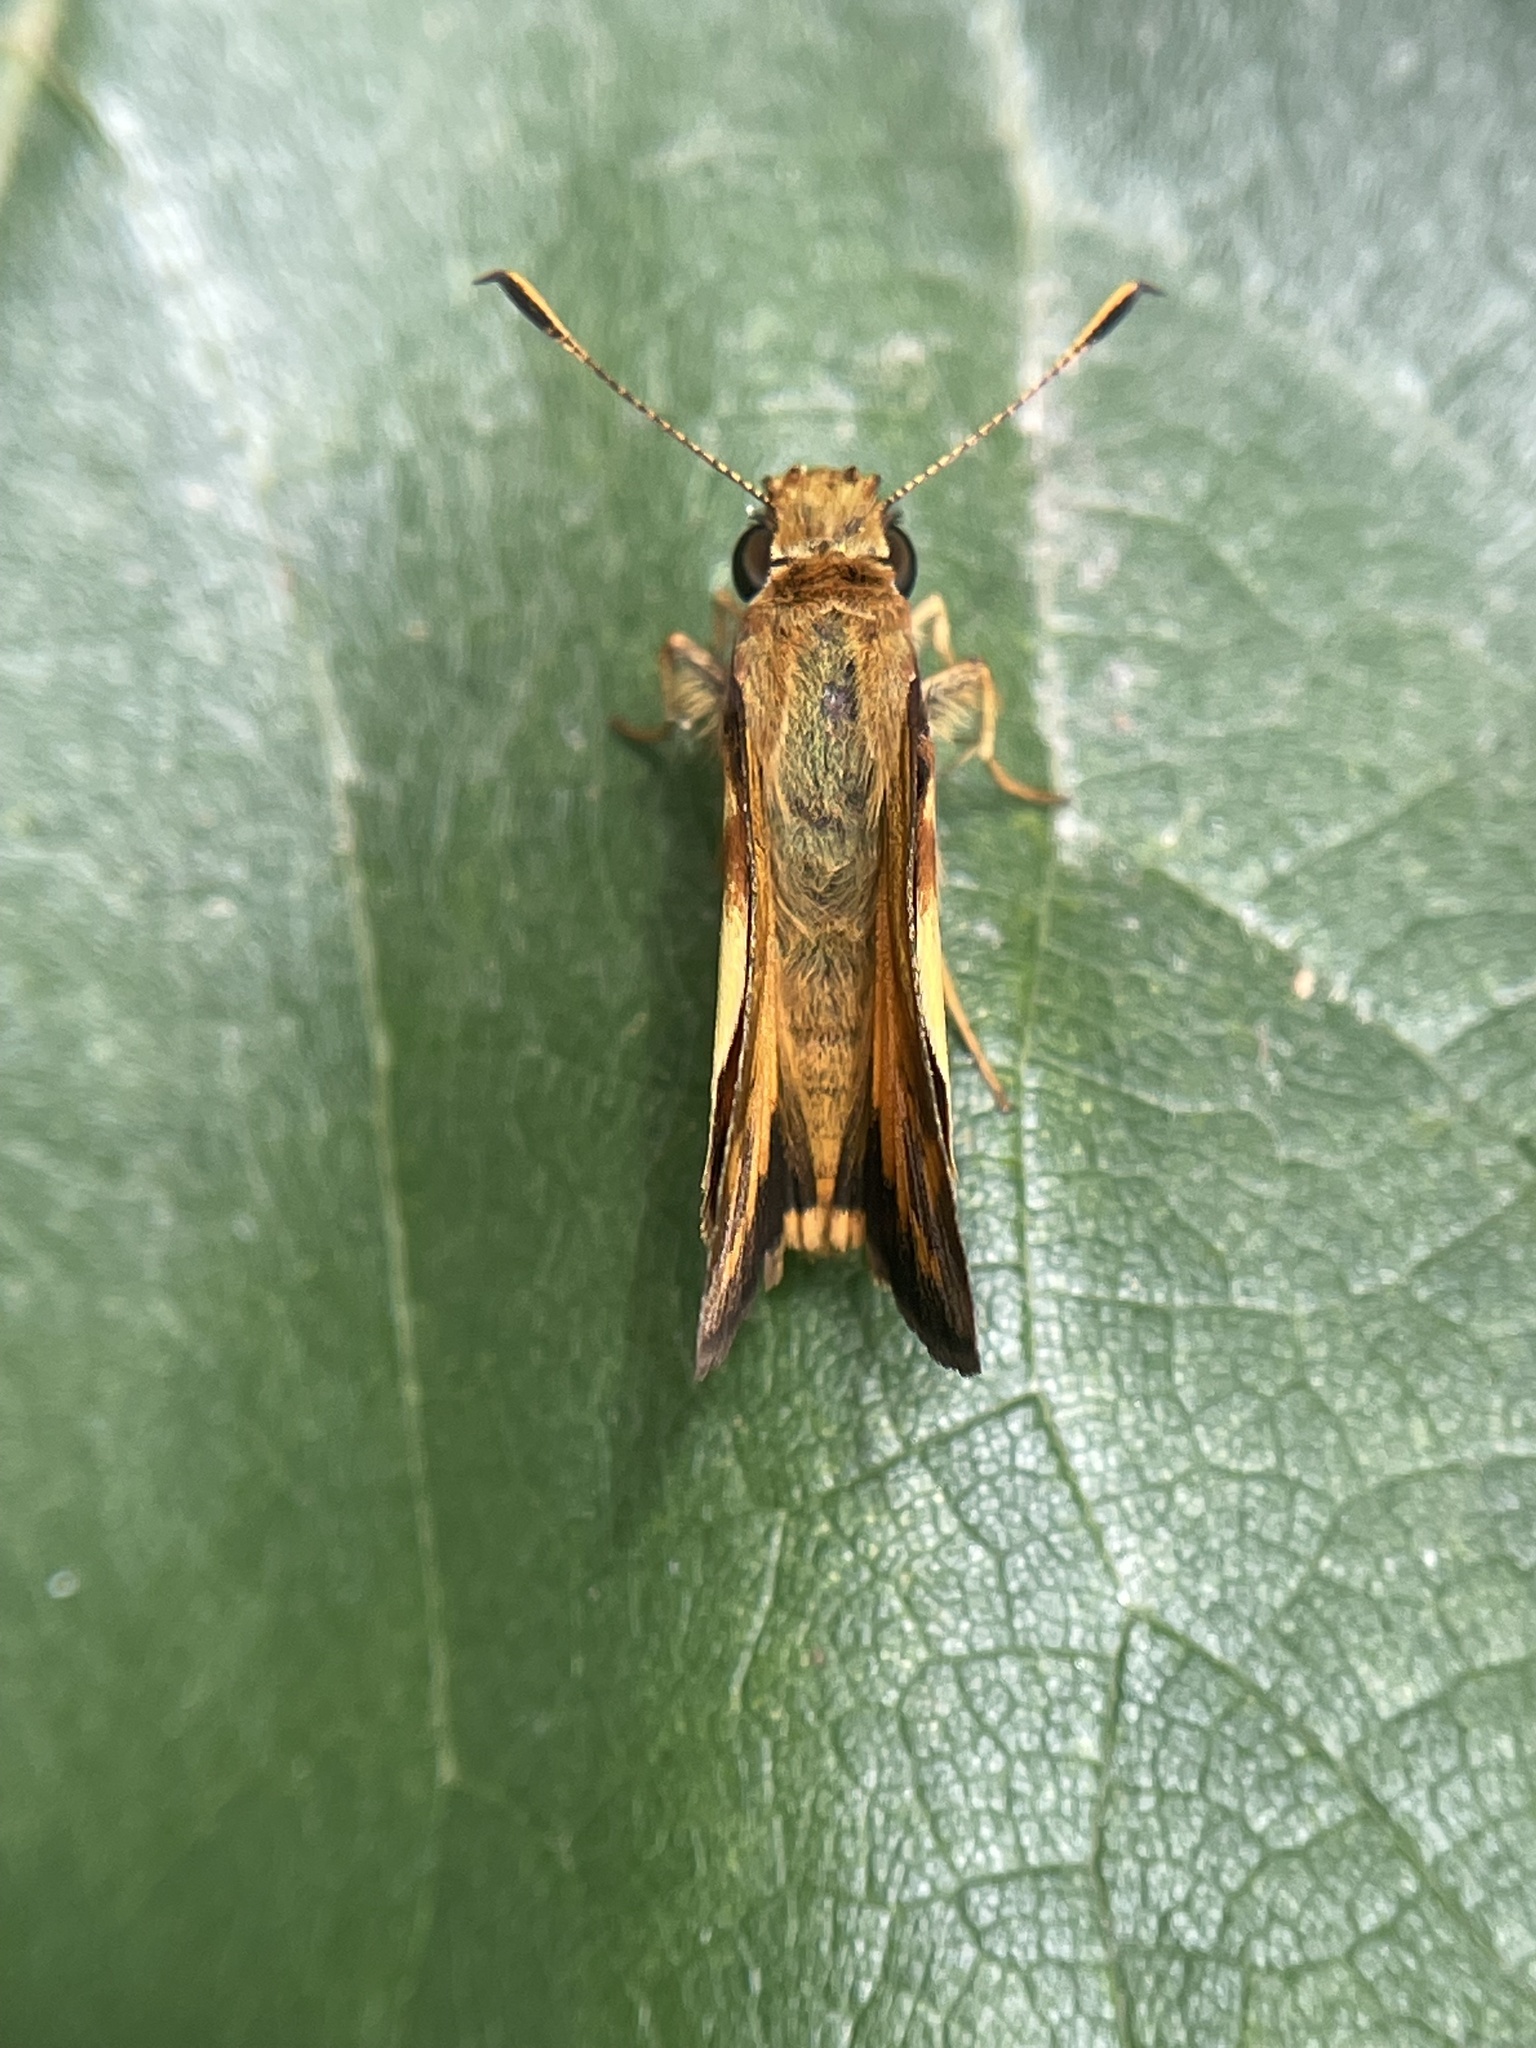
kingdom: Animalia
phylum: Arthropoda
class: Insecta
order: Lepidoptera
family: Hesperiidae
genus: Lon
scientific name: Lon zabulon
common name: Zabulon skipper
